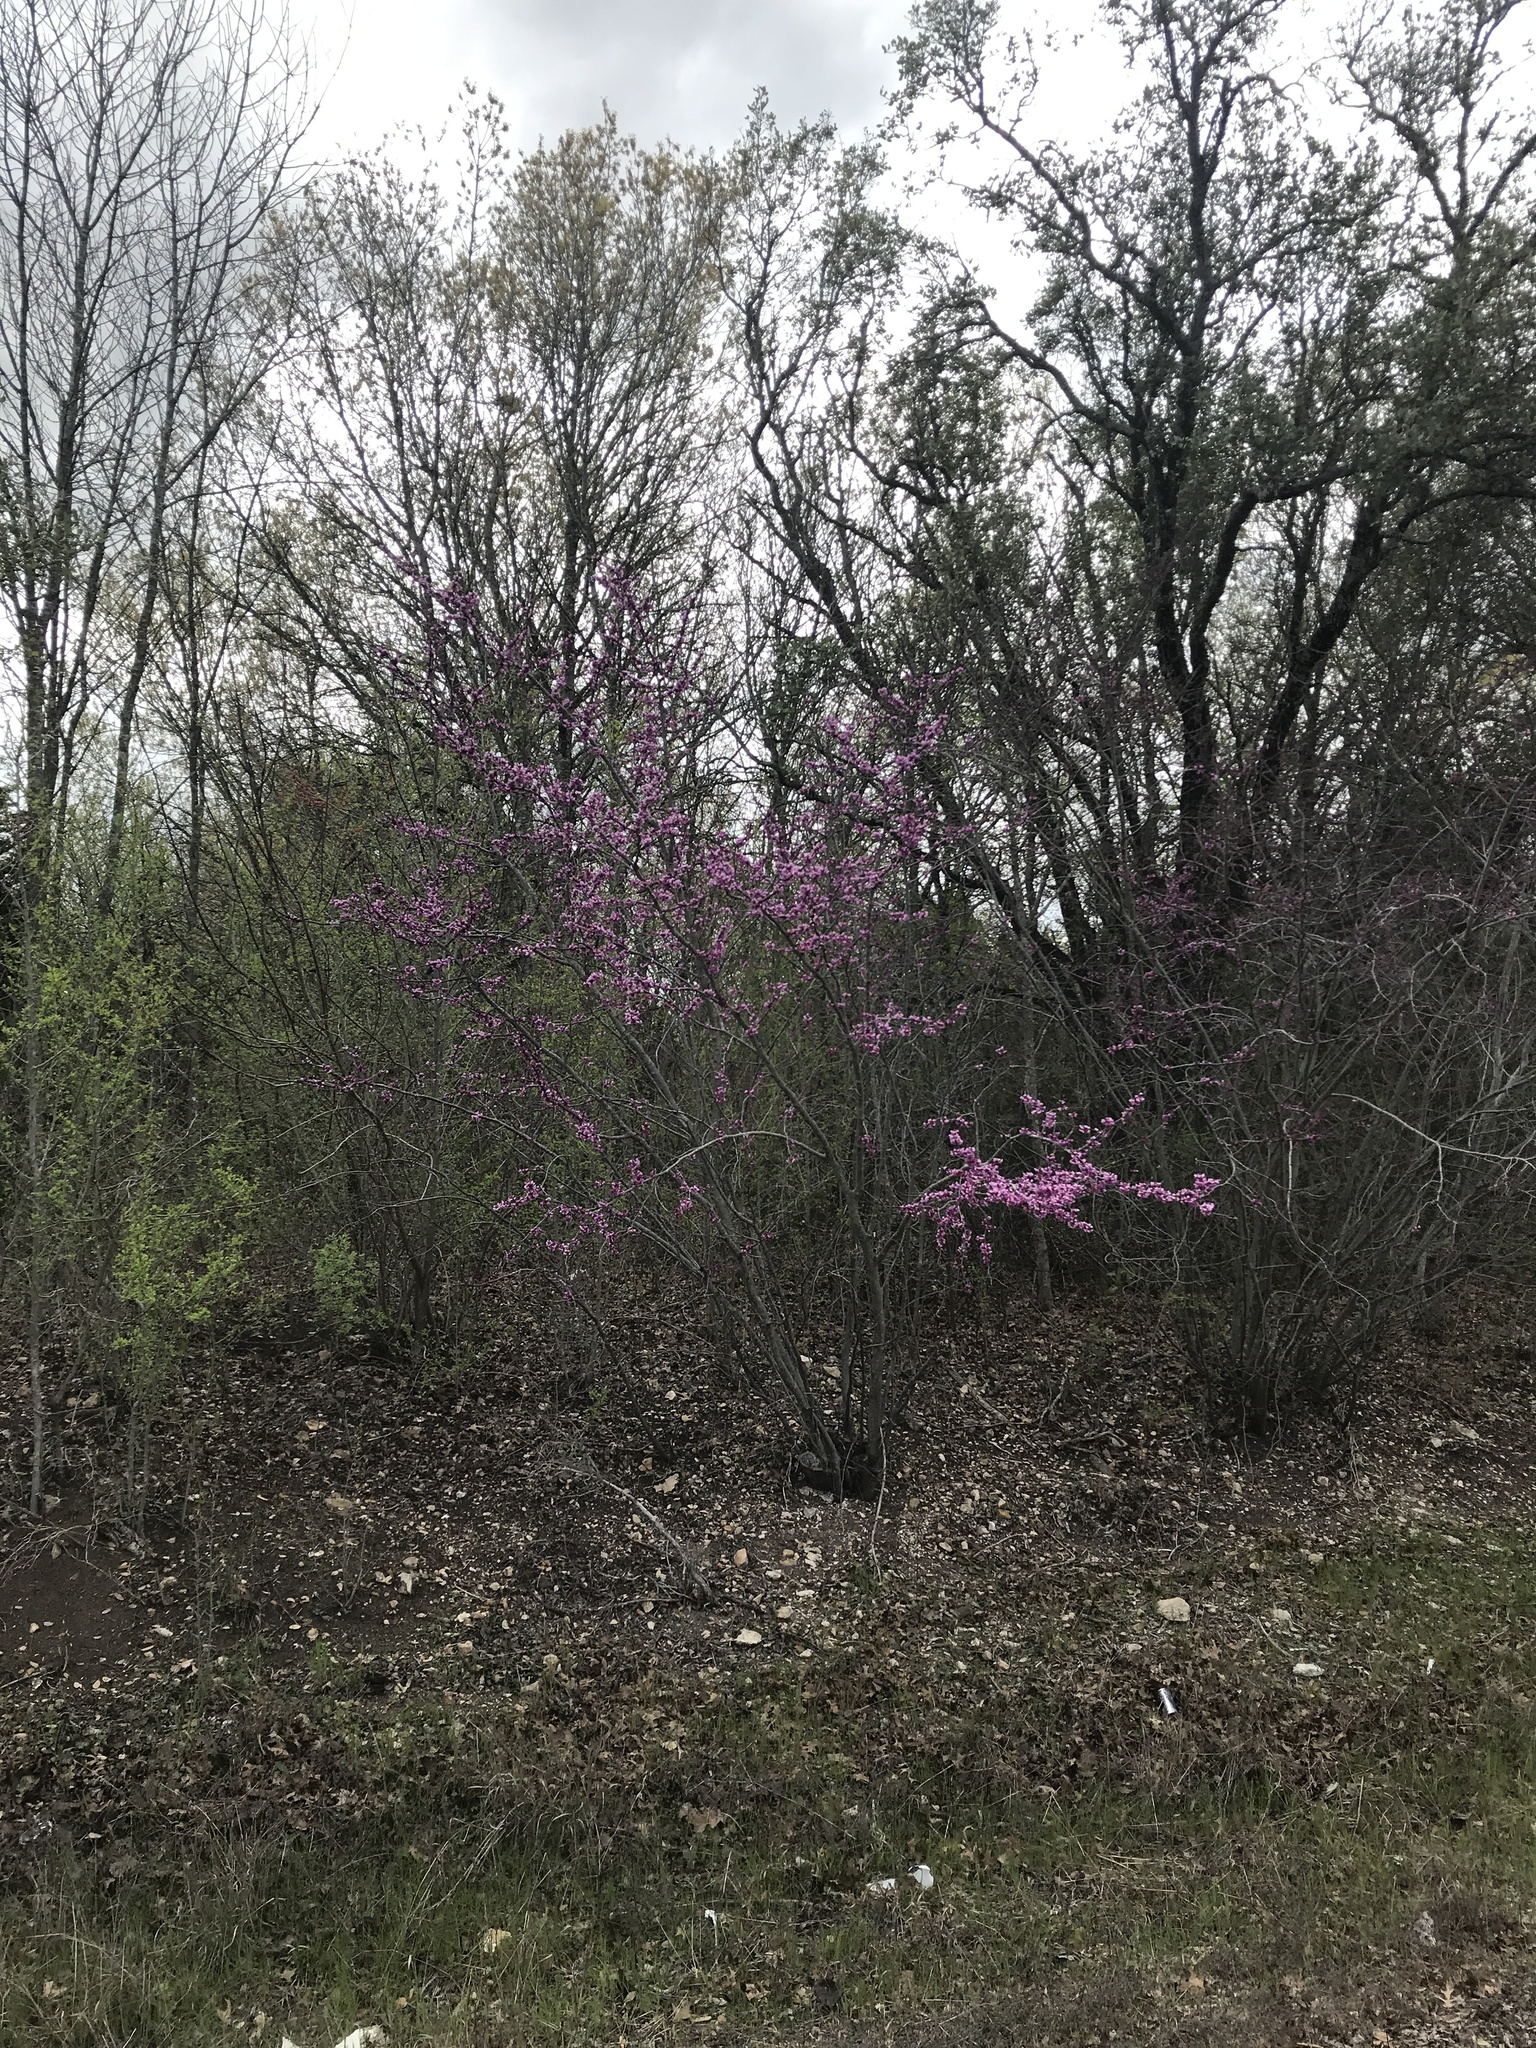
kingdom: Plantae
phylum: Tracheophyta
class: Magnoliopsida
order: Fabales
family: Fabaceae
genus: Cercis
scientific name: Cercis canadensis
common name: Eastern redbud
